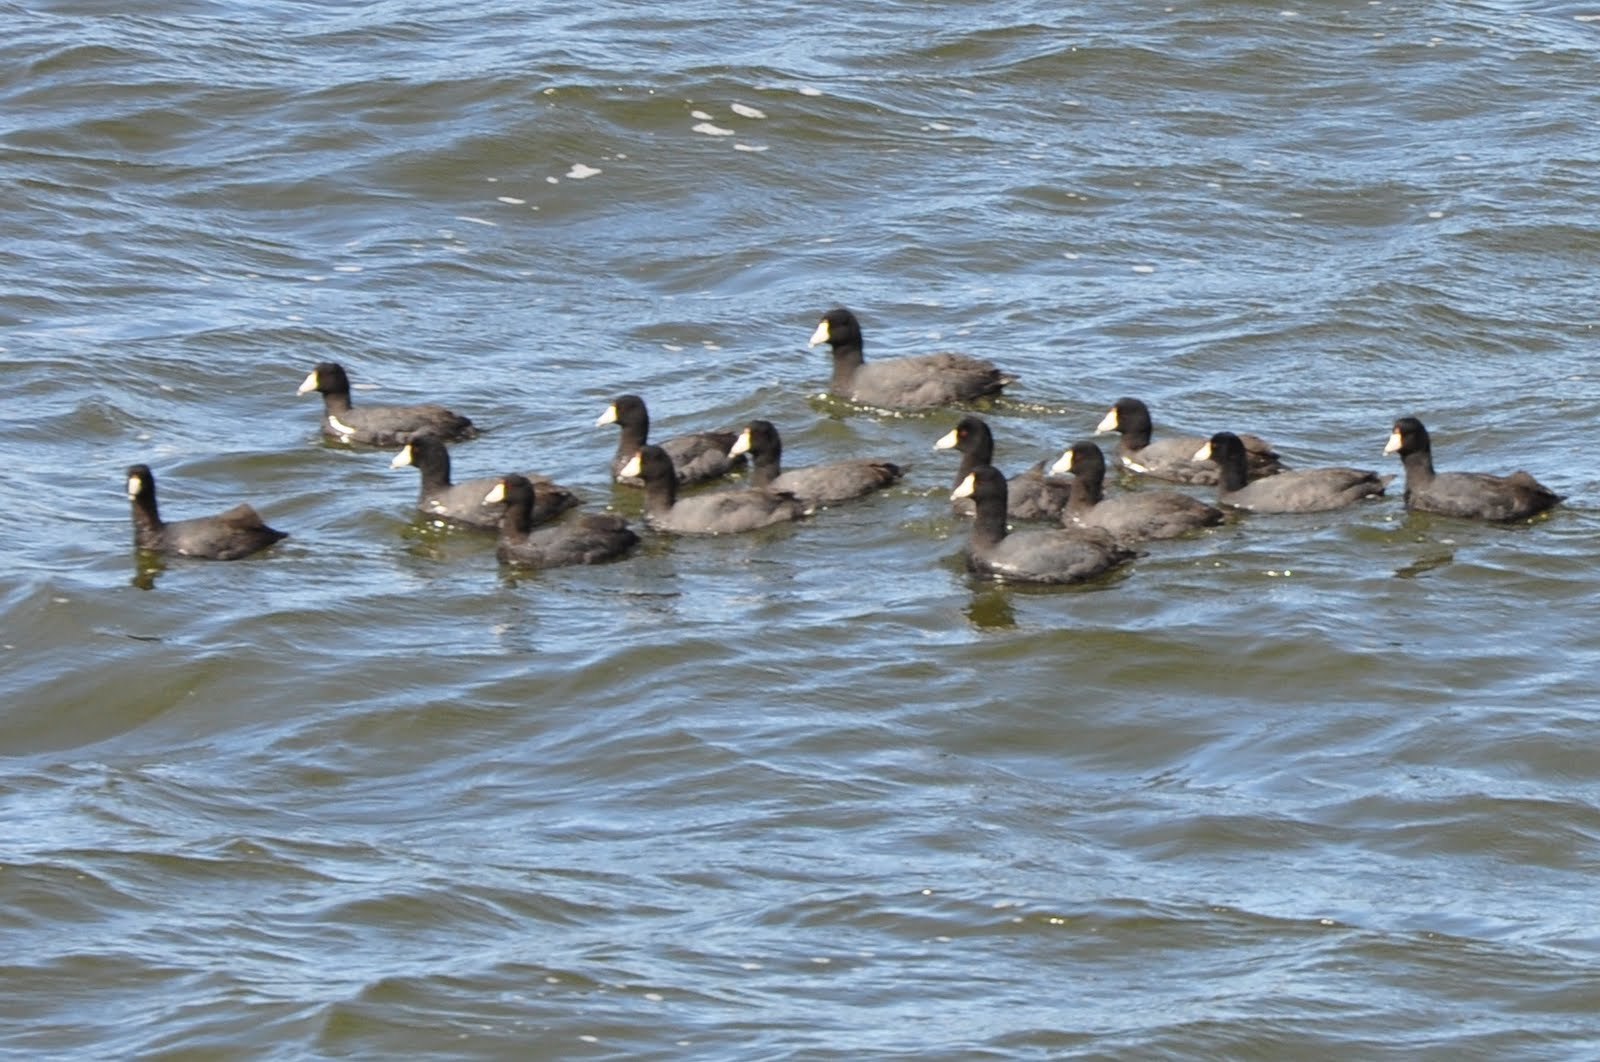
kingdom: Animalia
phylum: Chordata
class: Aves
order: Gruiformes
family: Rallidae
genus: Fulica
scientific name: Fulica americana
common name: American coot
